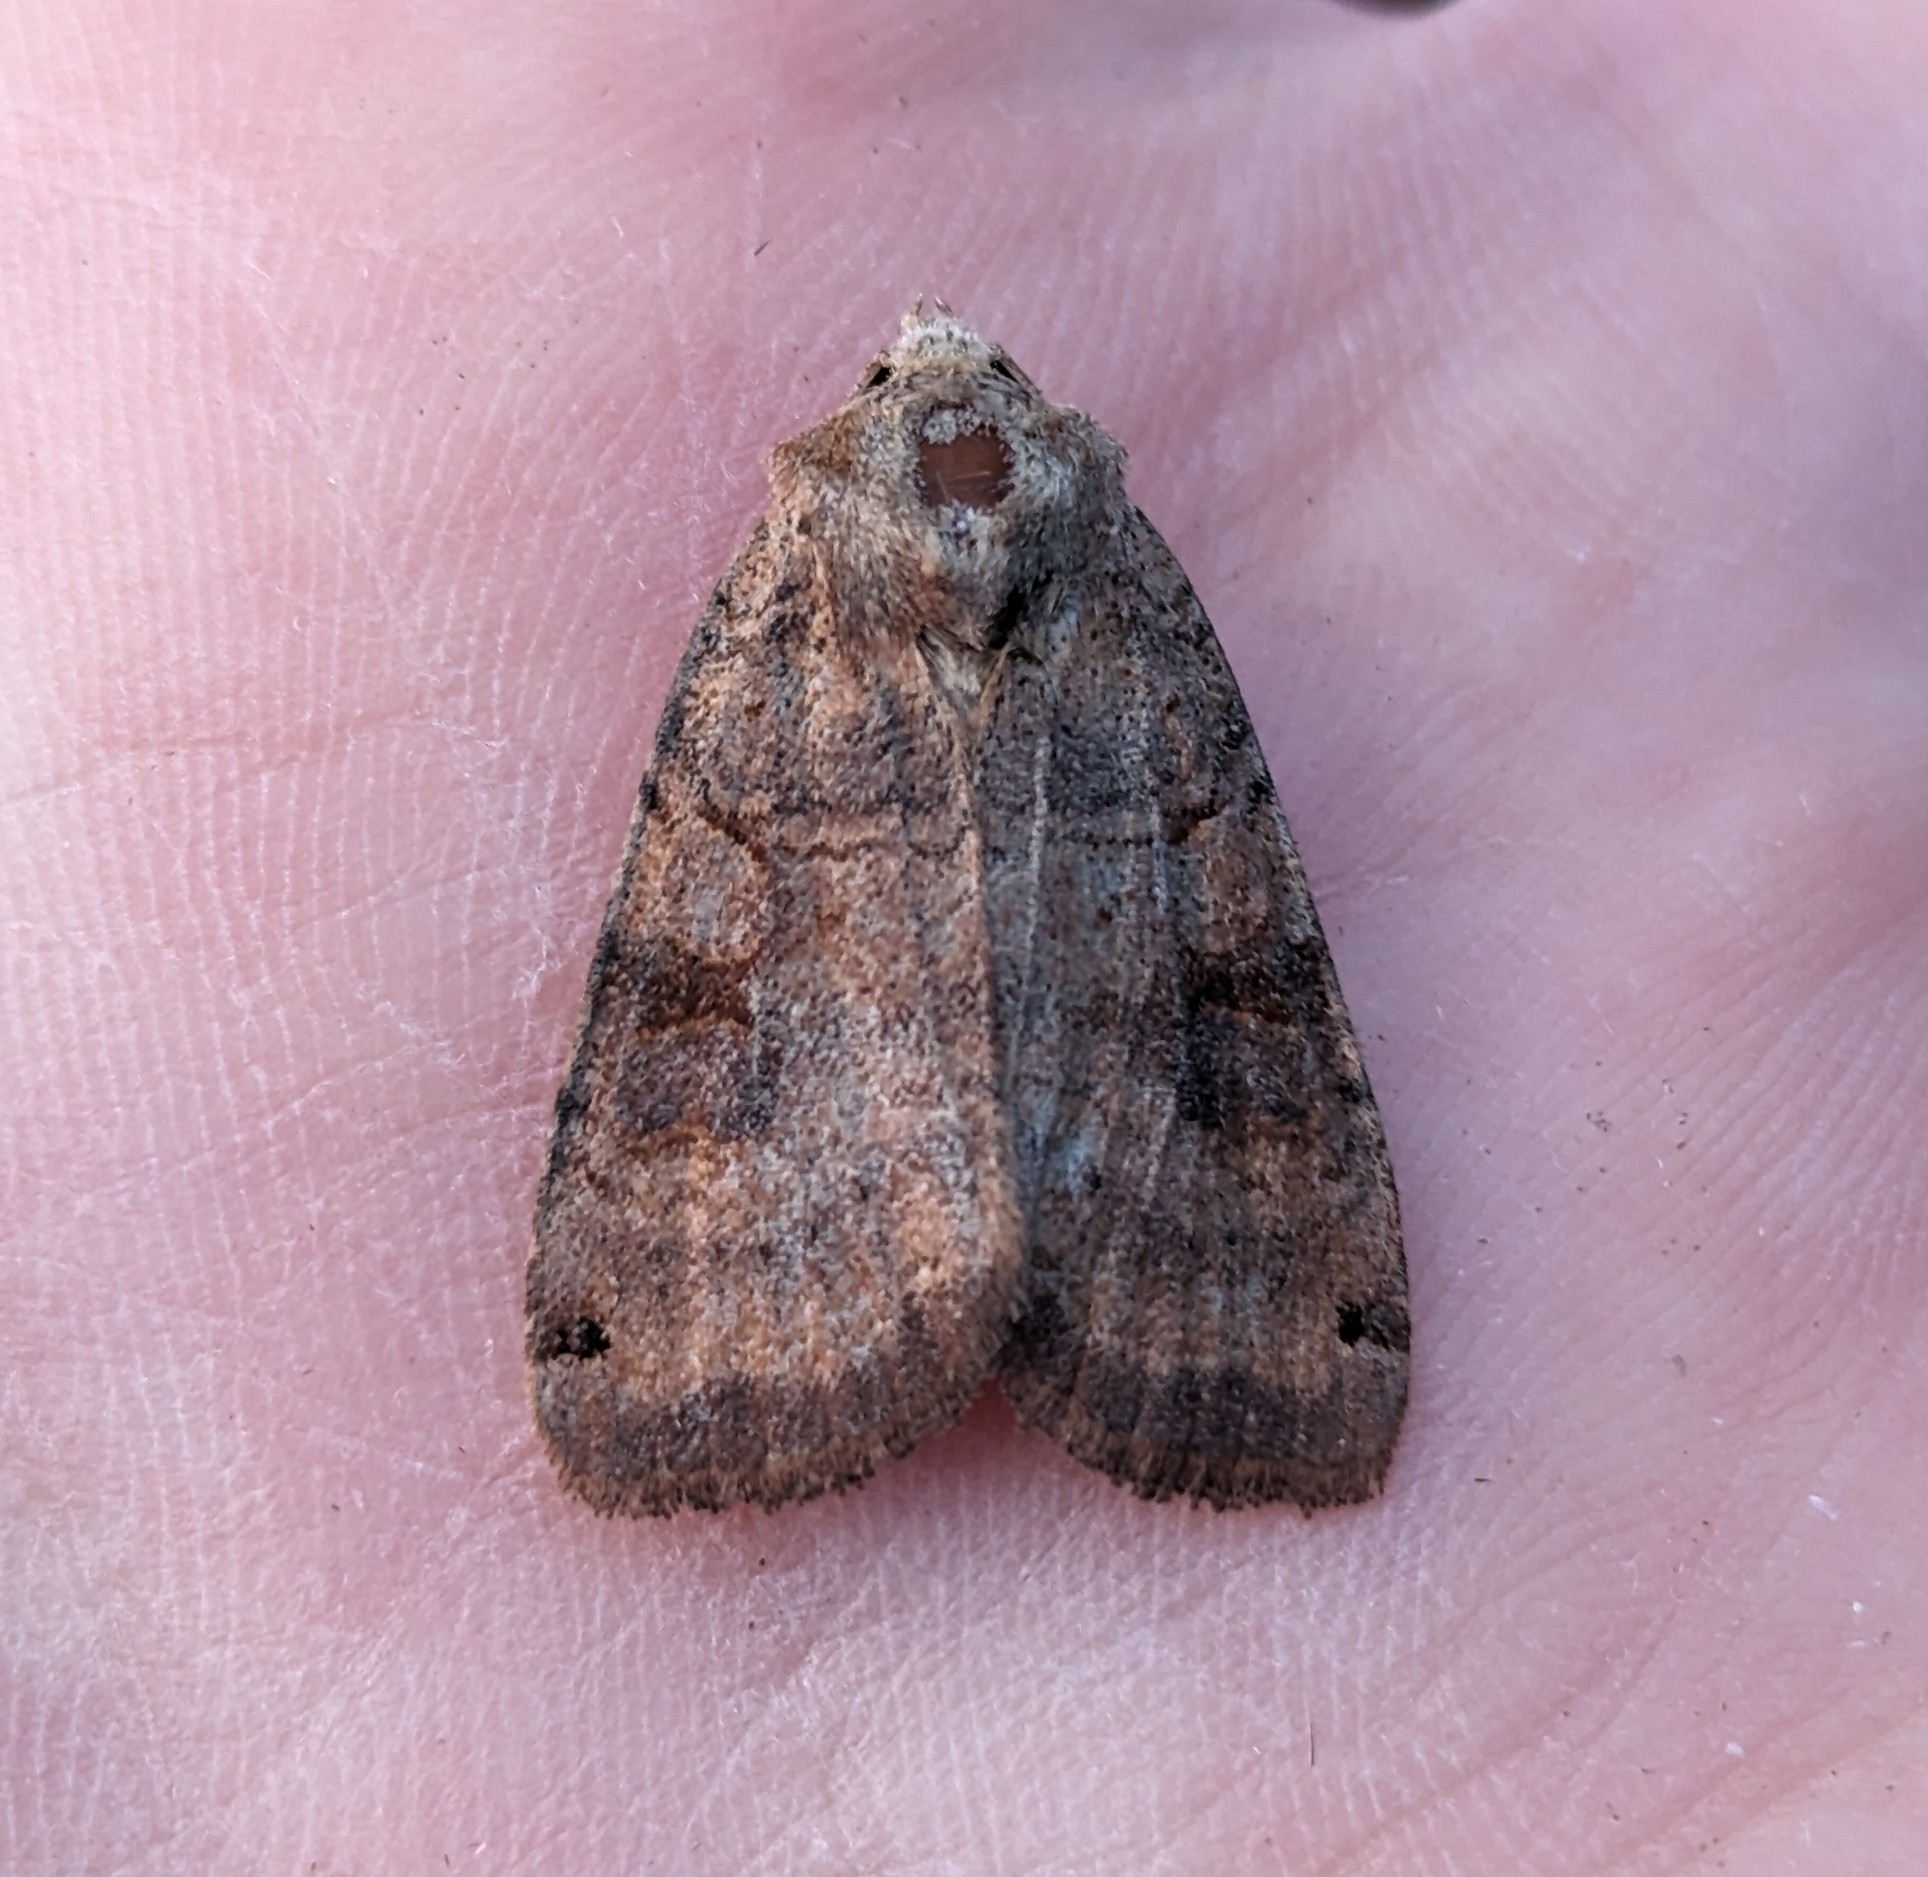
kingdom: Animalia
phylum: Arthropoda
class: Insecta
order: Lepidoptera
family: Noctuidae
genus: Xestia
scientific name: Xestia smithii
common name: Smith's dart
